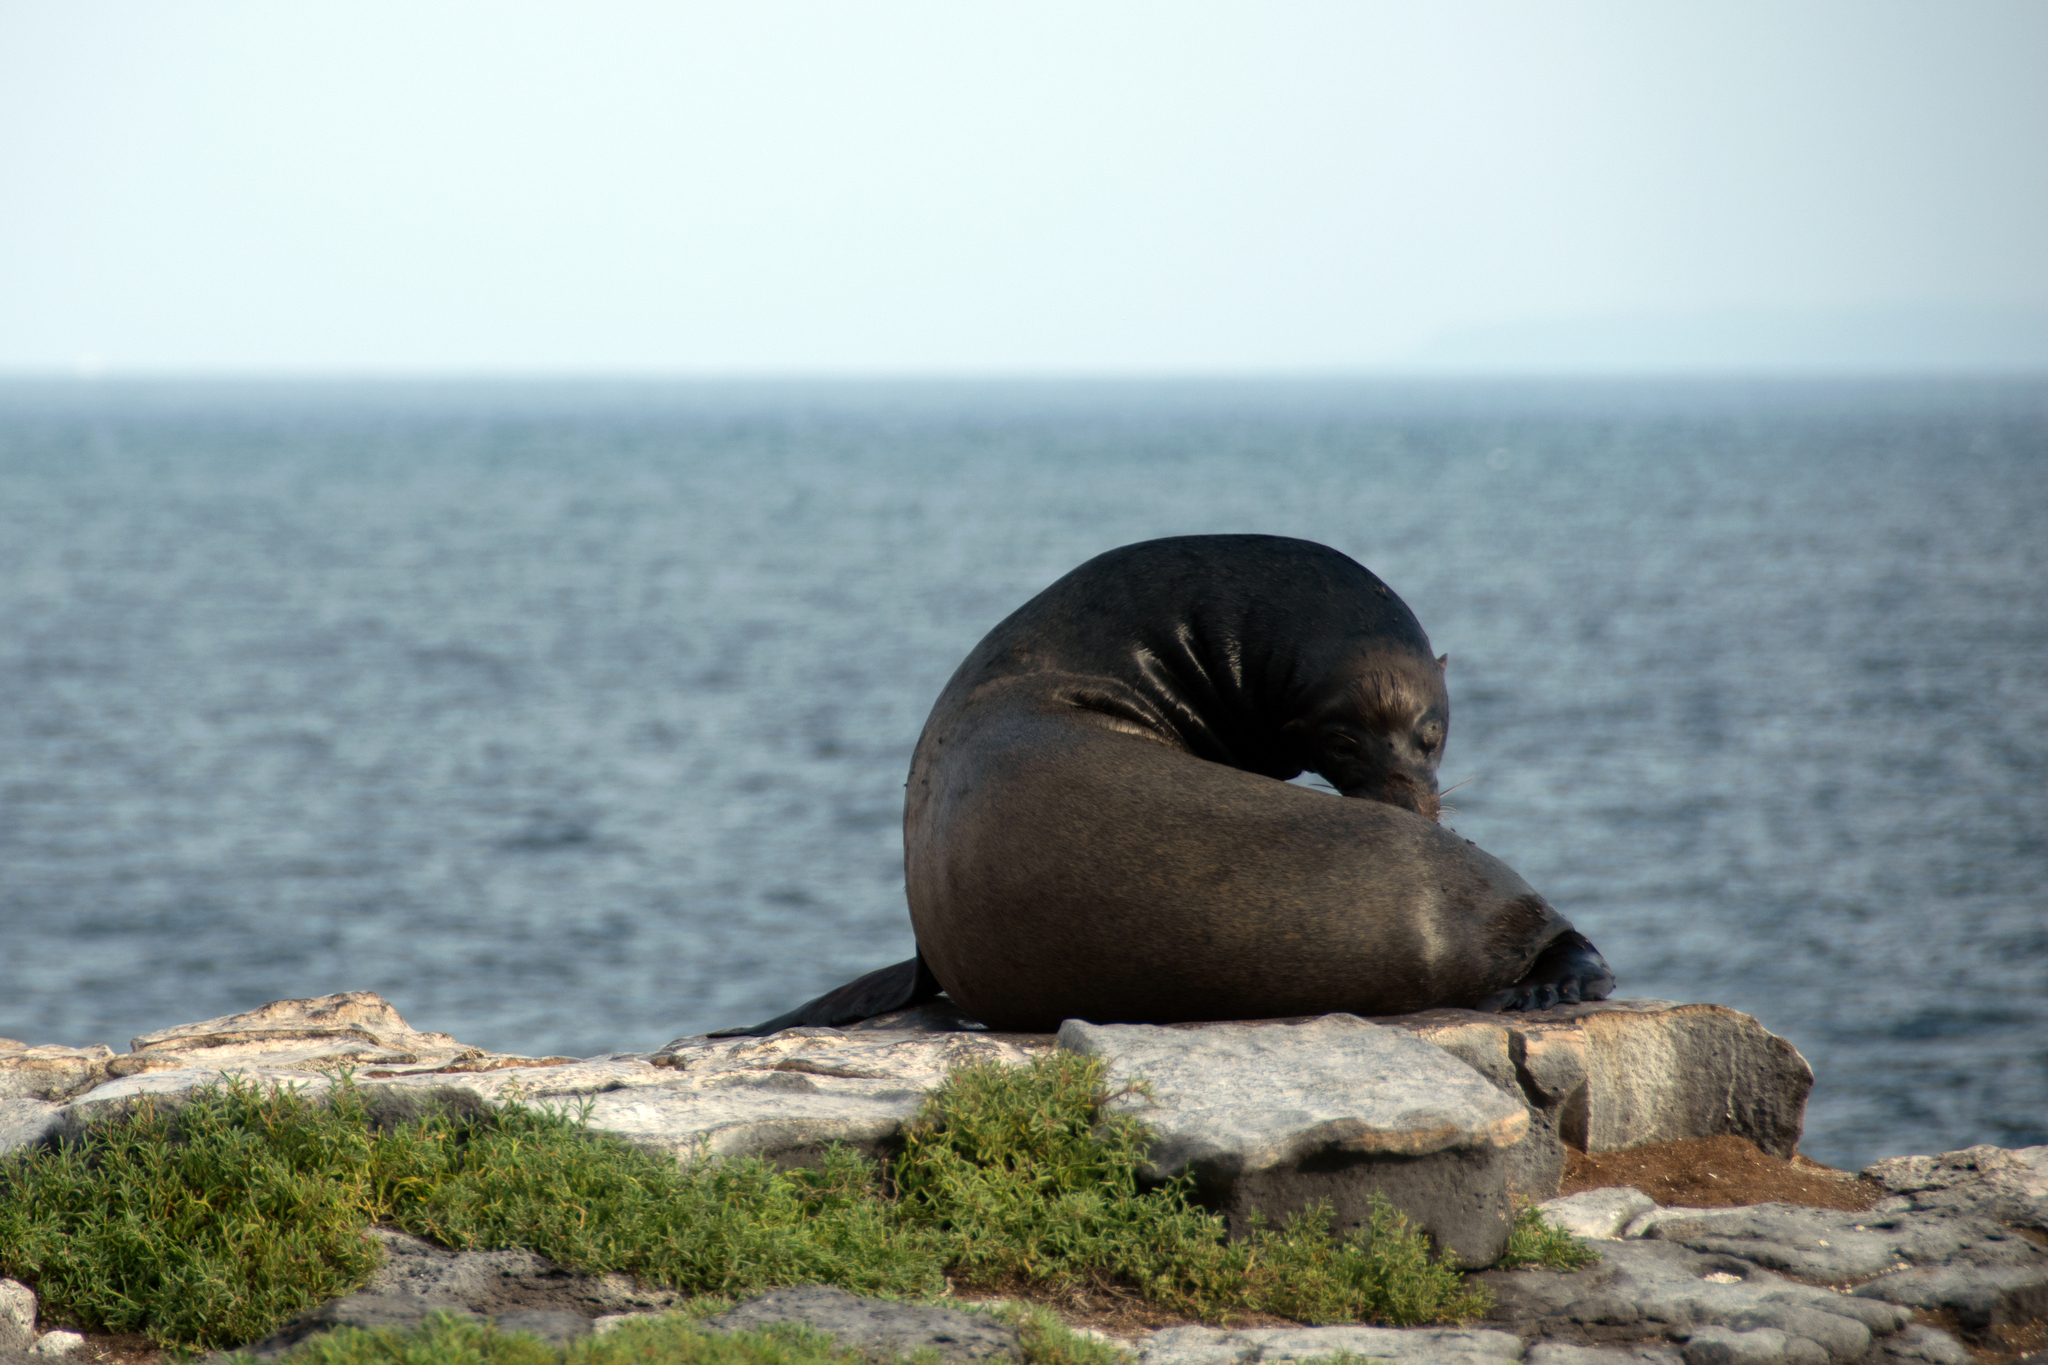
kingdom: Animalia
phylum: Chordata
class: Mammalia
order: Carnivora
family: Otariidae
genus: Zalophus
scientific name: Zalophus wollebaeki
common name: Galapagos sea lion
